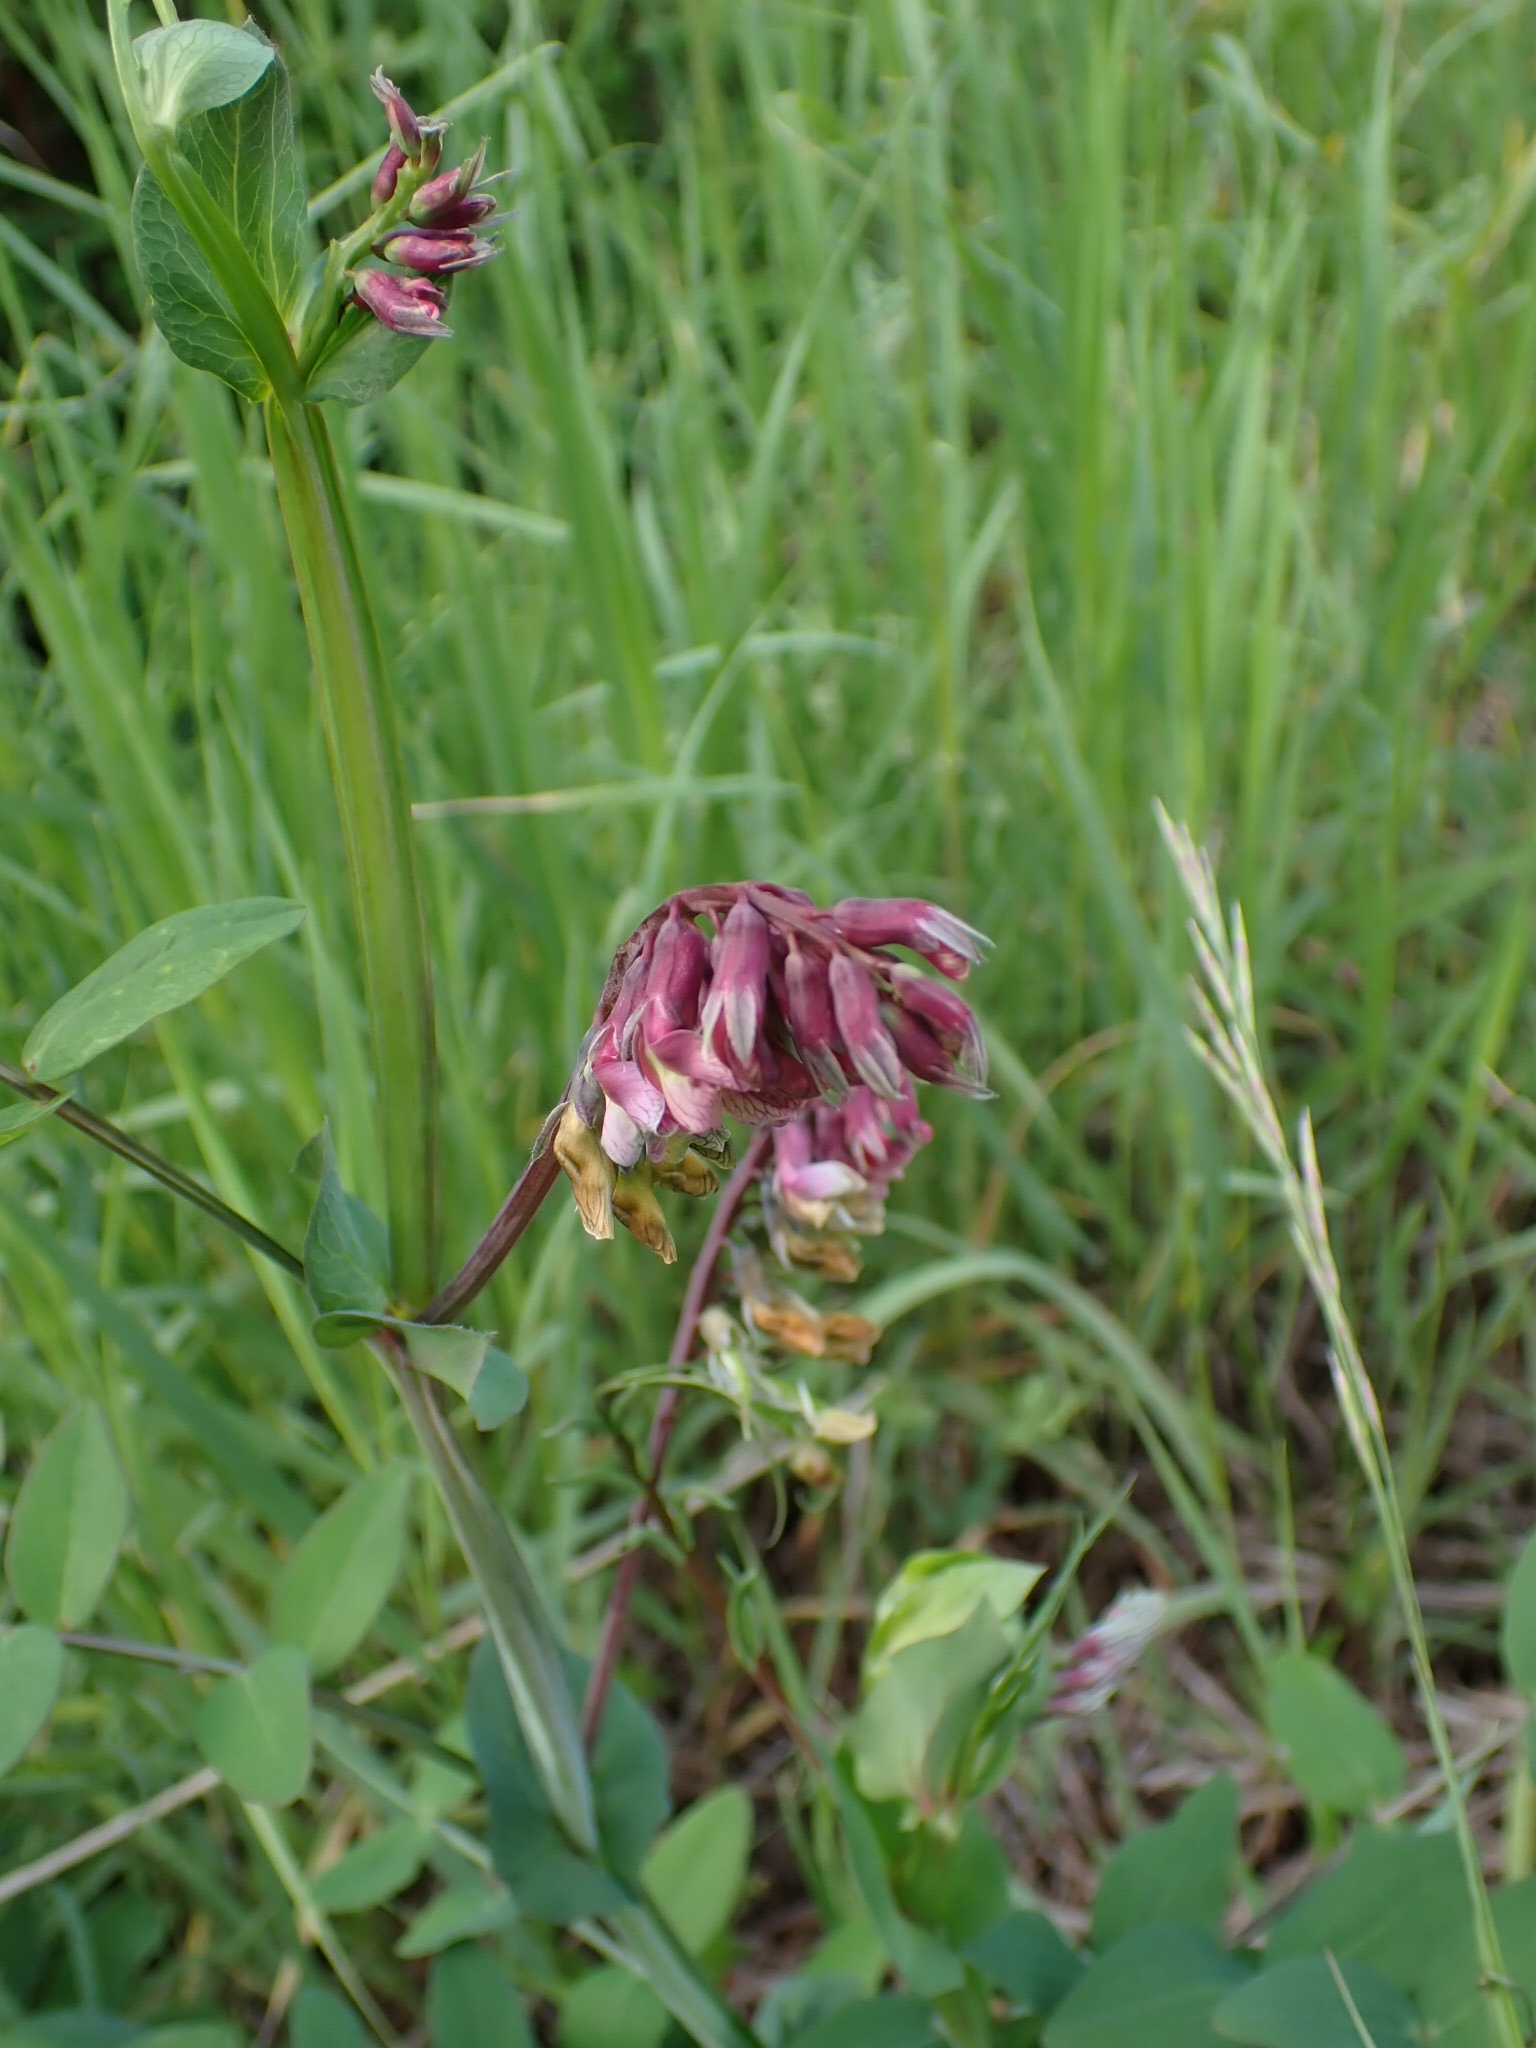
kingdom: Plantae
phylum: Tracheophyta
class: Magnoliopsida
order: Fabales
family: Fabaceae
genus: Lathyrus
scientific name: Lathyrus pisiformis
